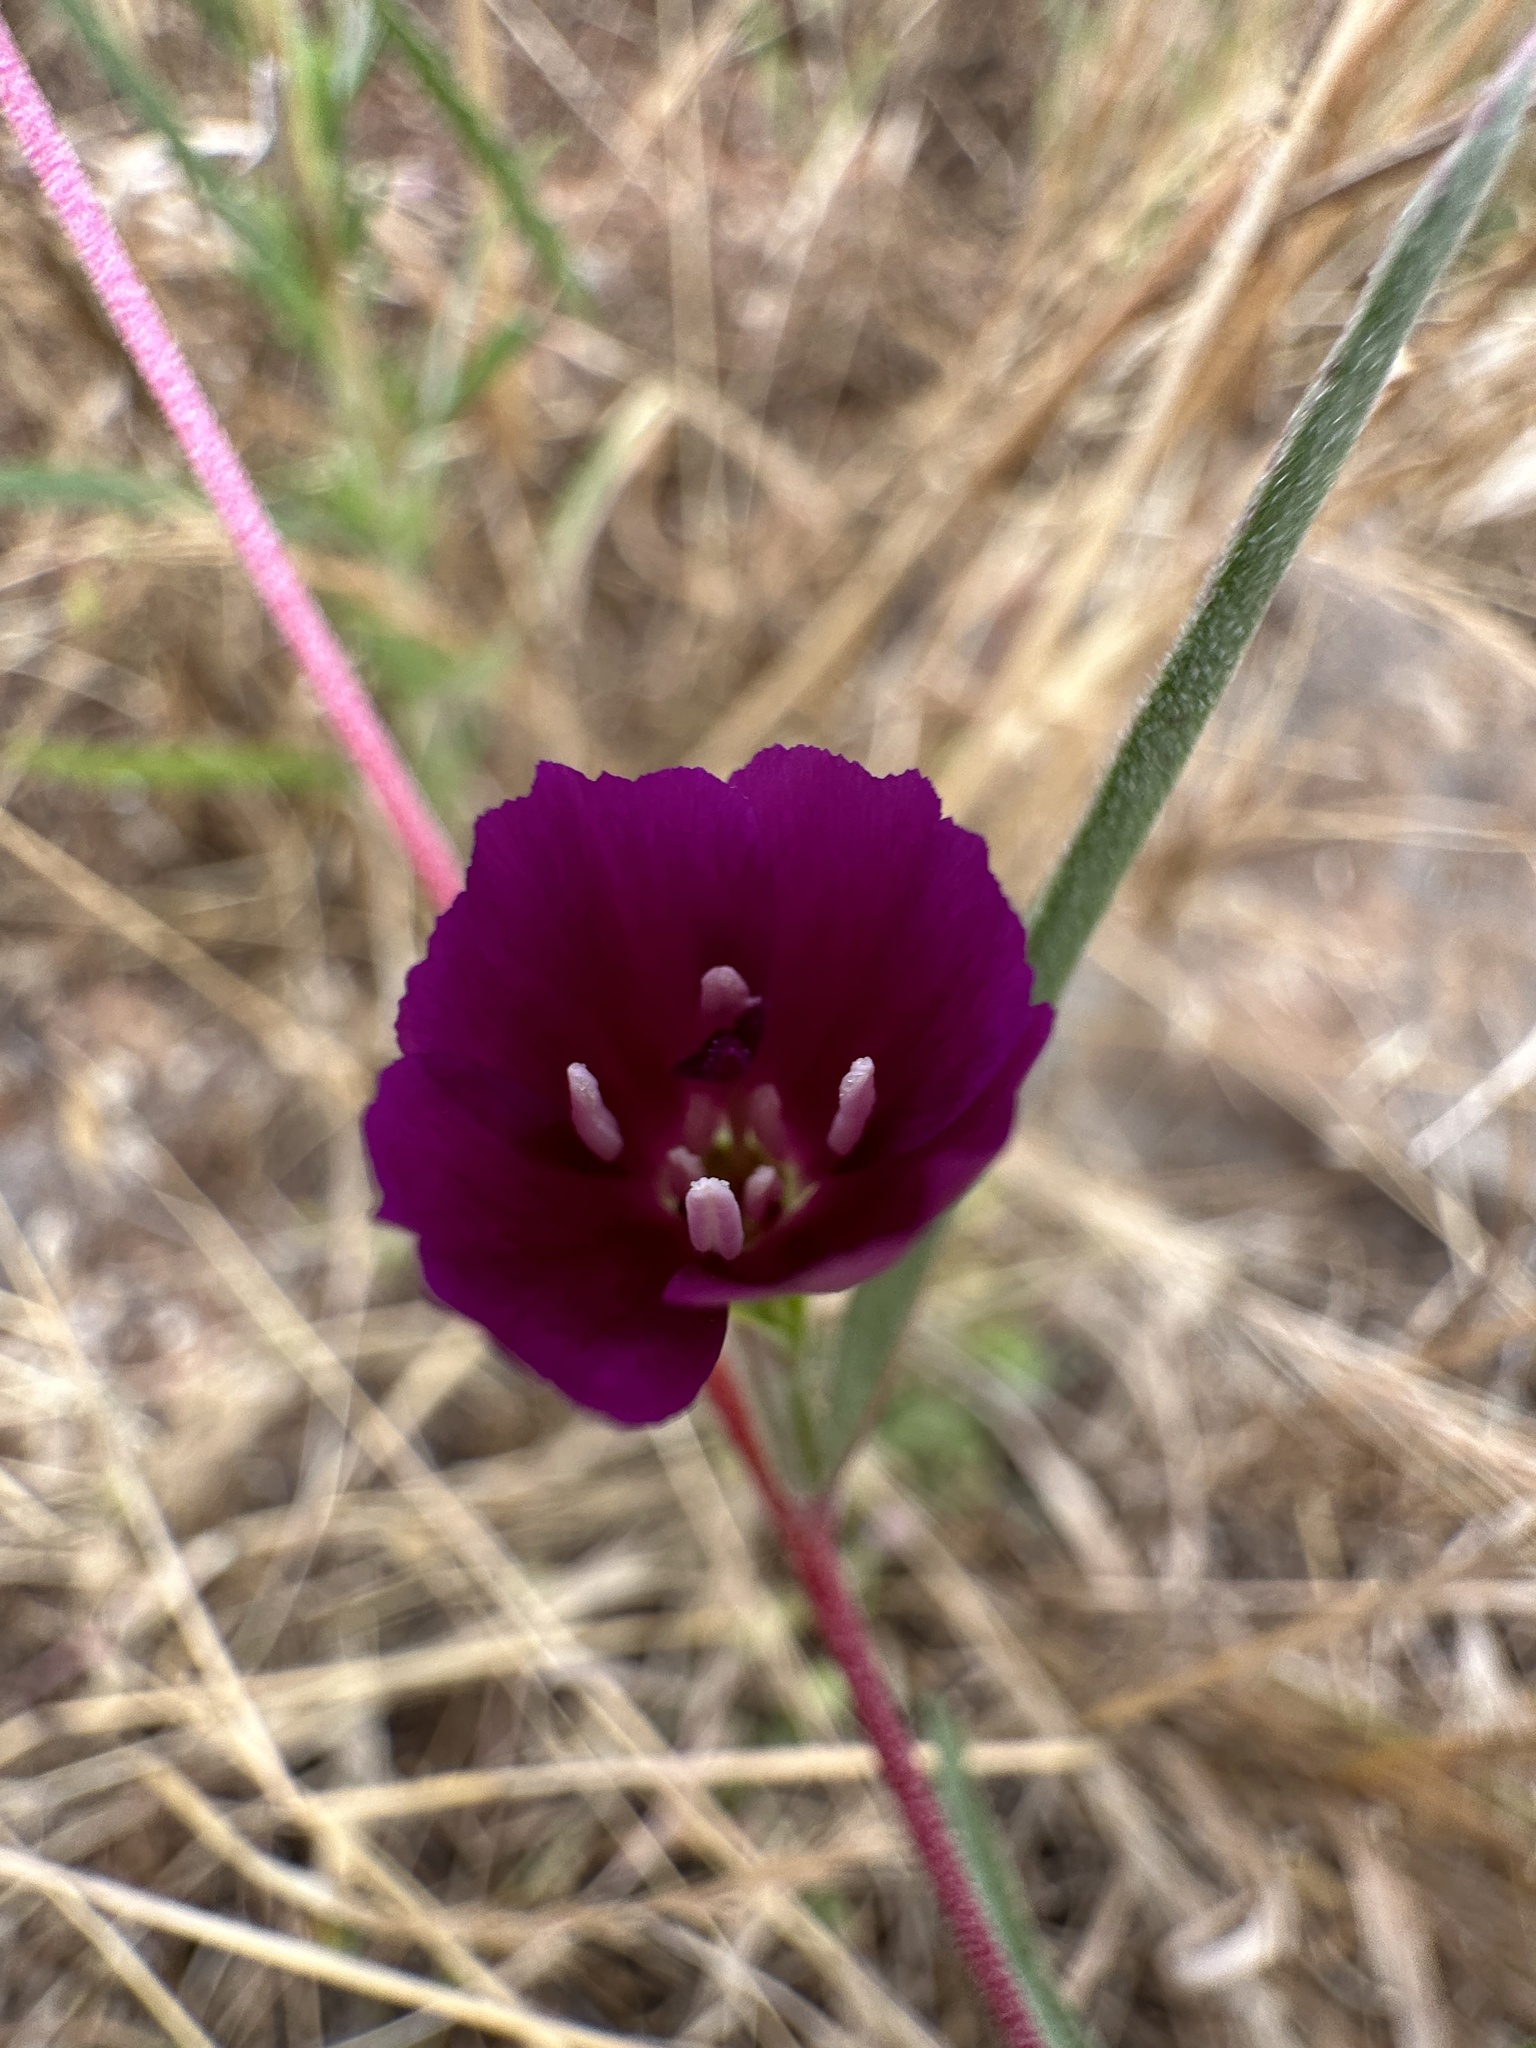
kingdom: Plantae
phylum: Tracheophyta
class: Magnoliopsida
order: Myrtales
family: Onagraceae
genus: Clarkia
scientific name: Clarkia purpurea
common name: Purple clarkia
